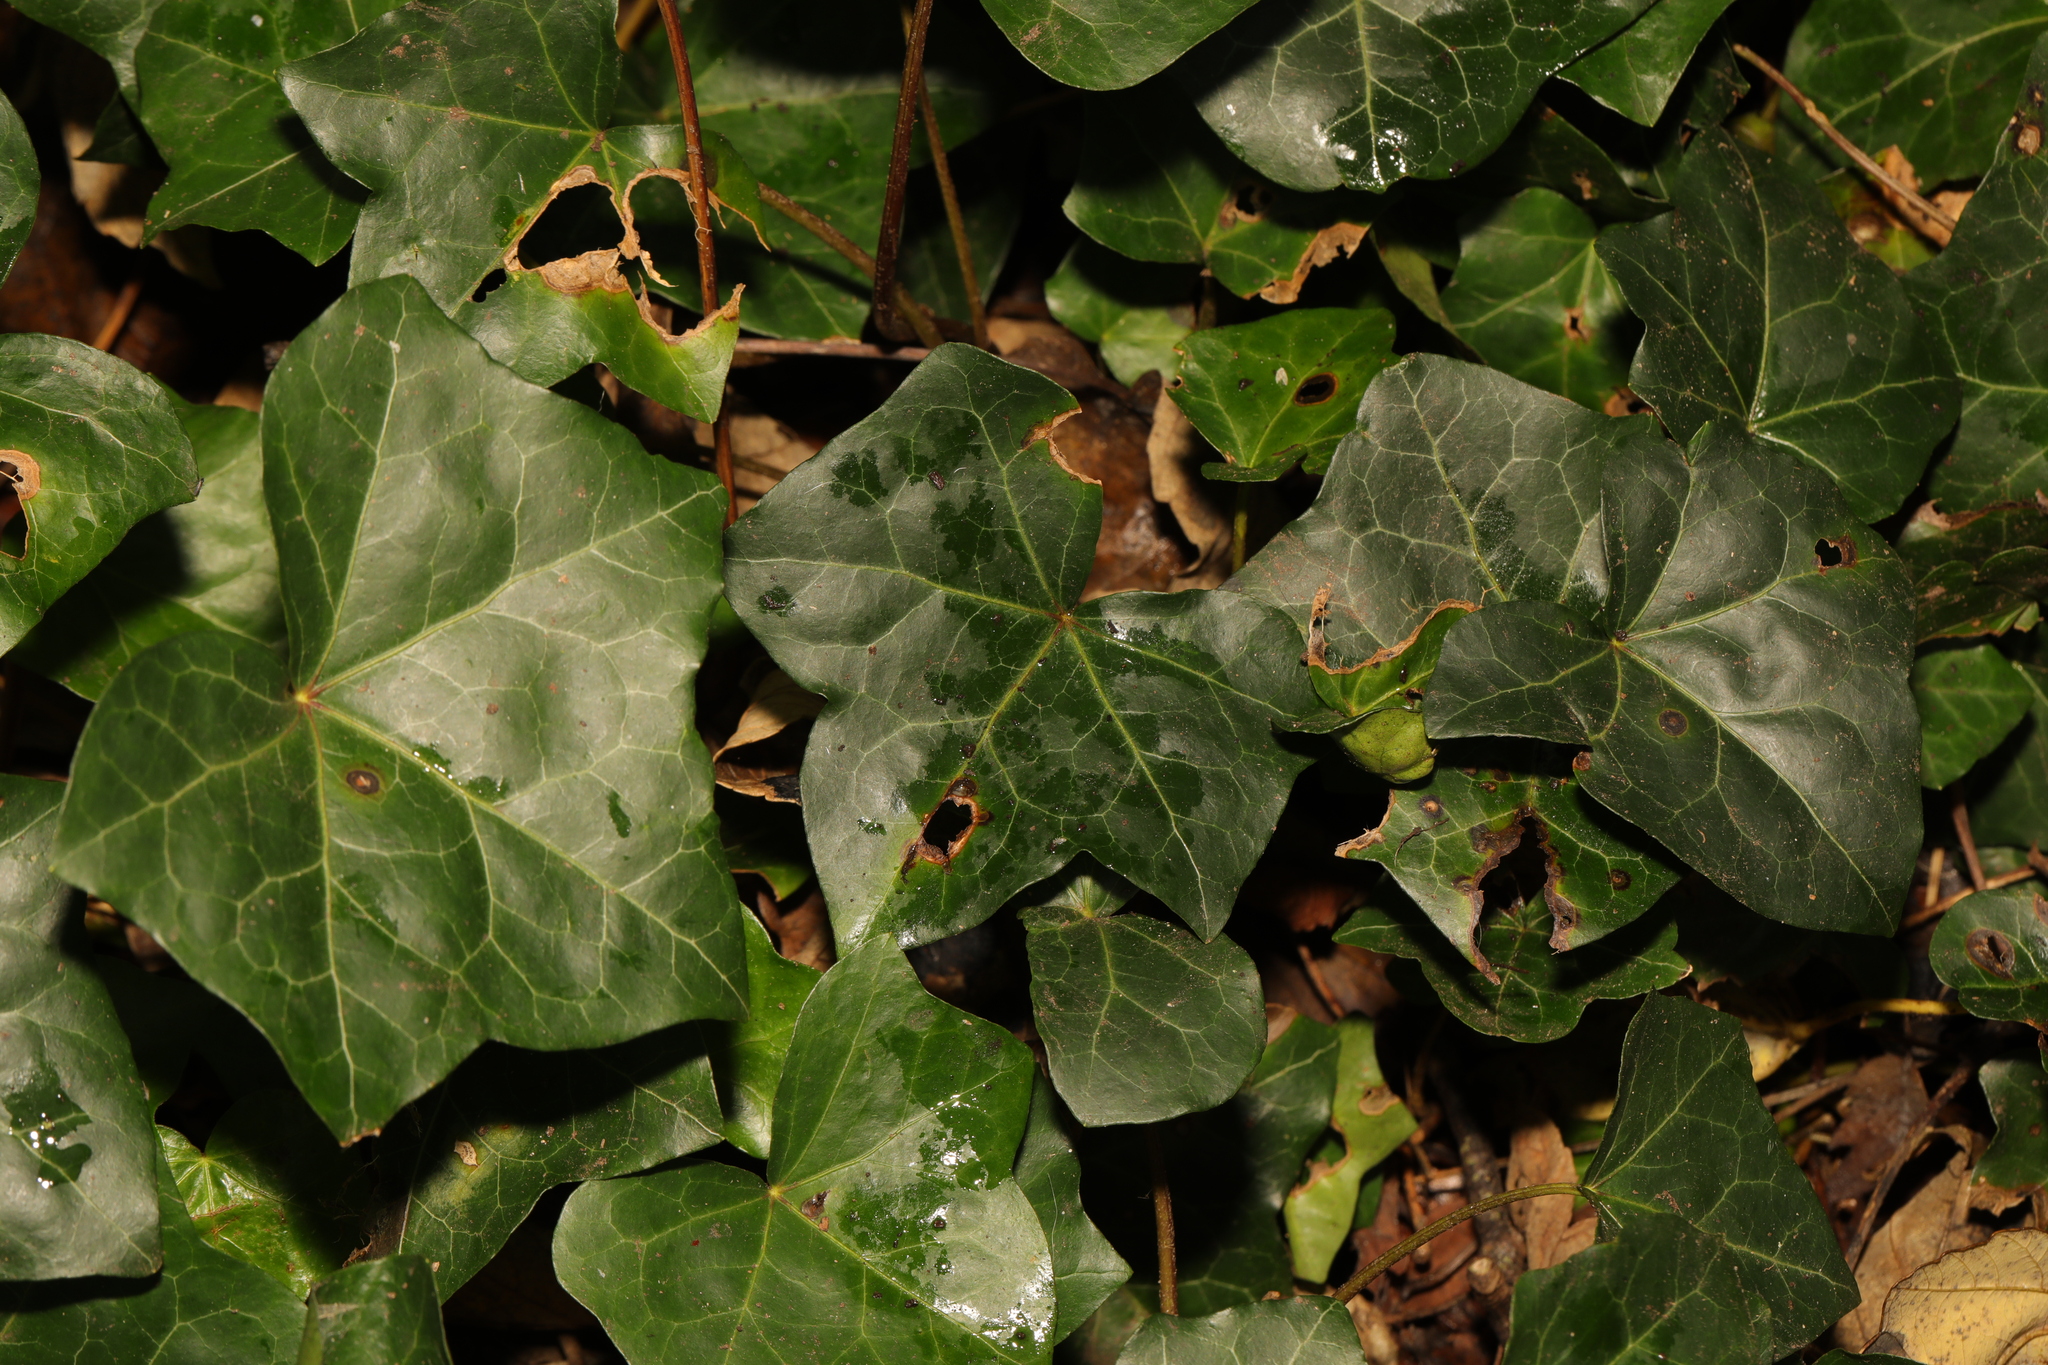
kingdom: Plantae
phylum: Tracheophyta
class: Magnoliopsida
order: Apiales
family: Araliaceae
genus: Hedera
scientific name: Hedera helix
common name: Ivy
